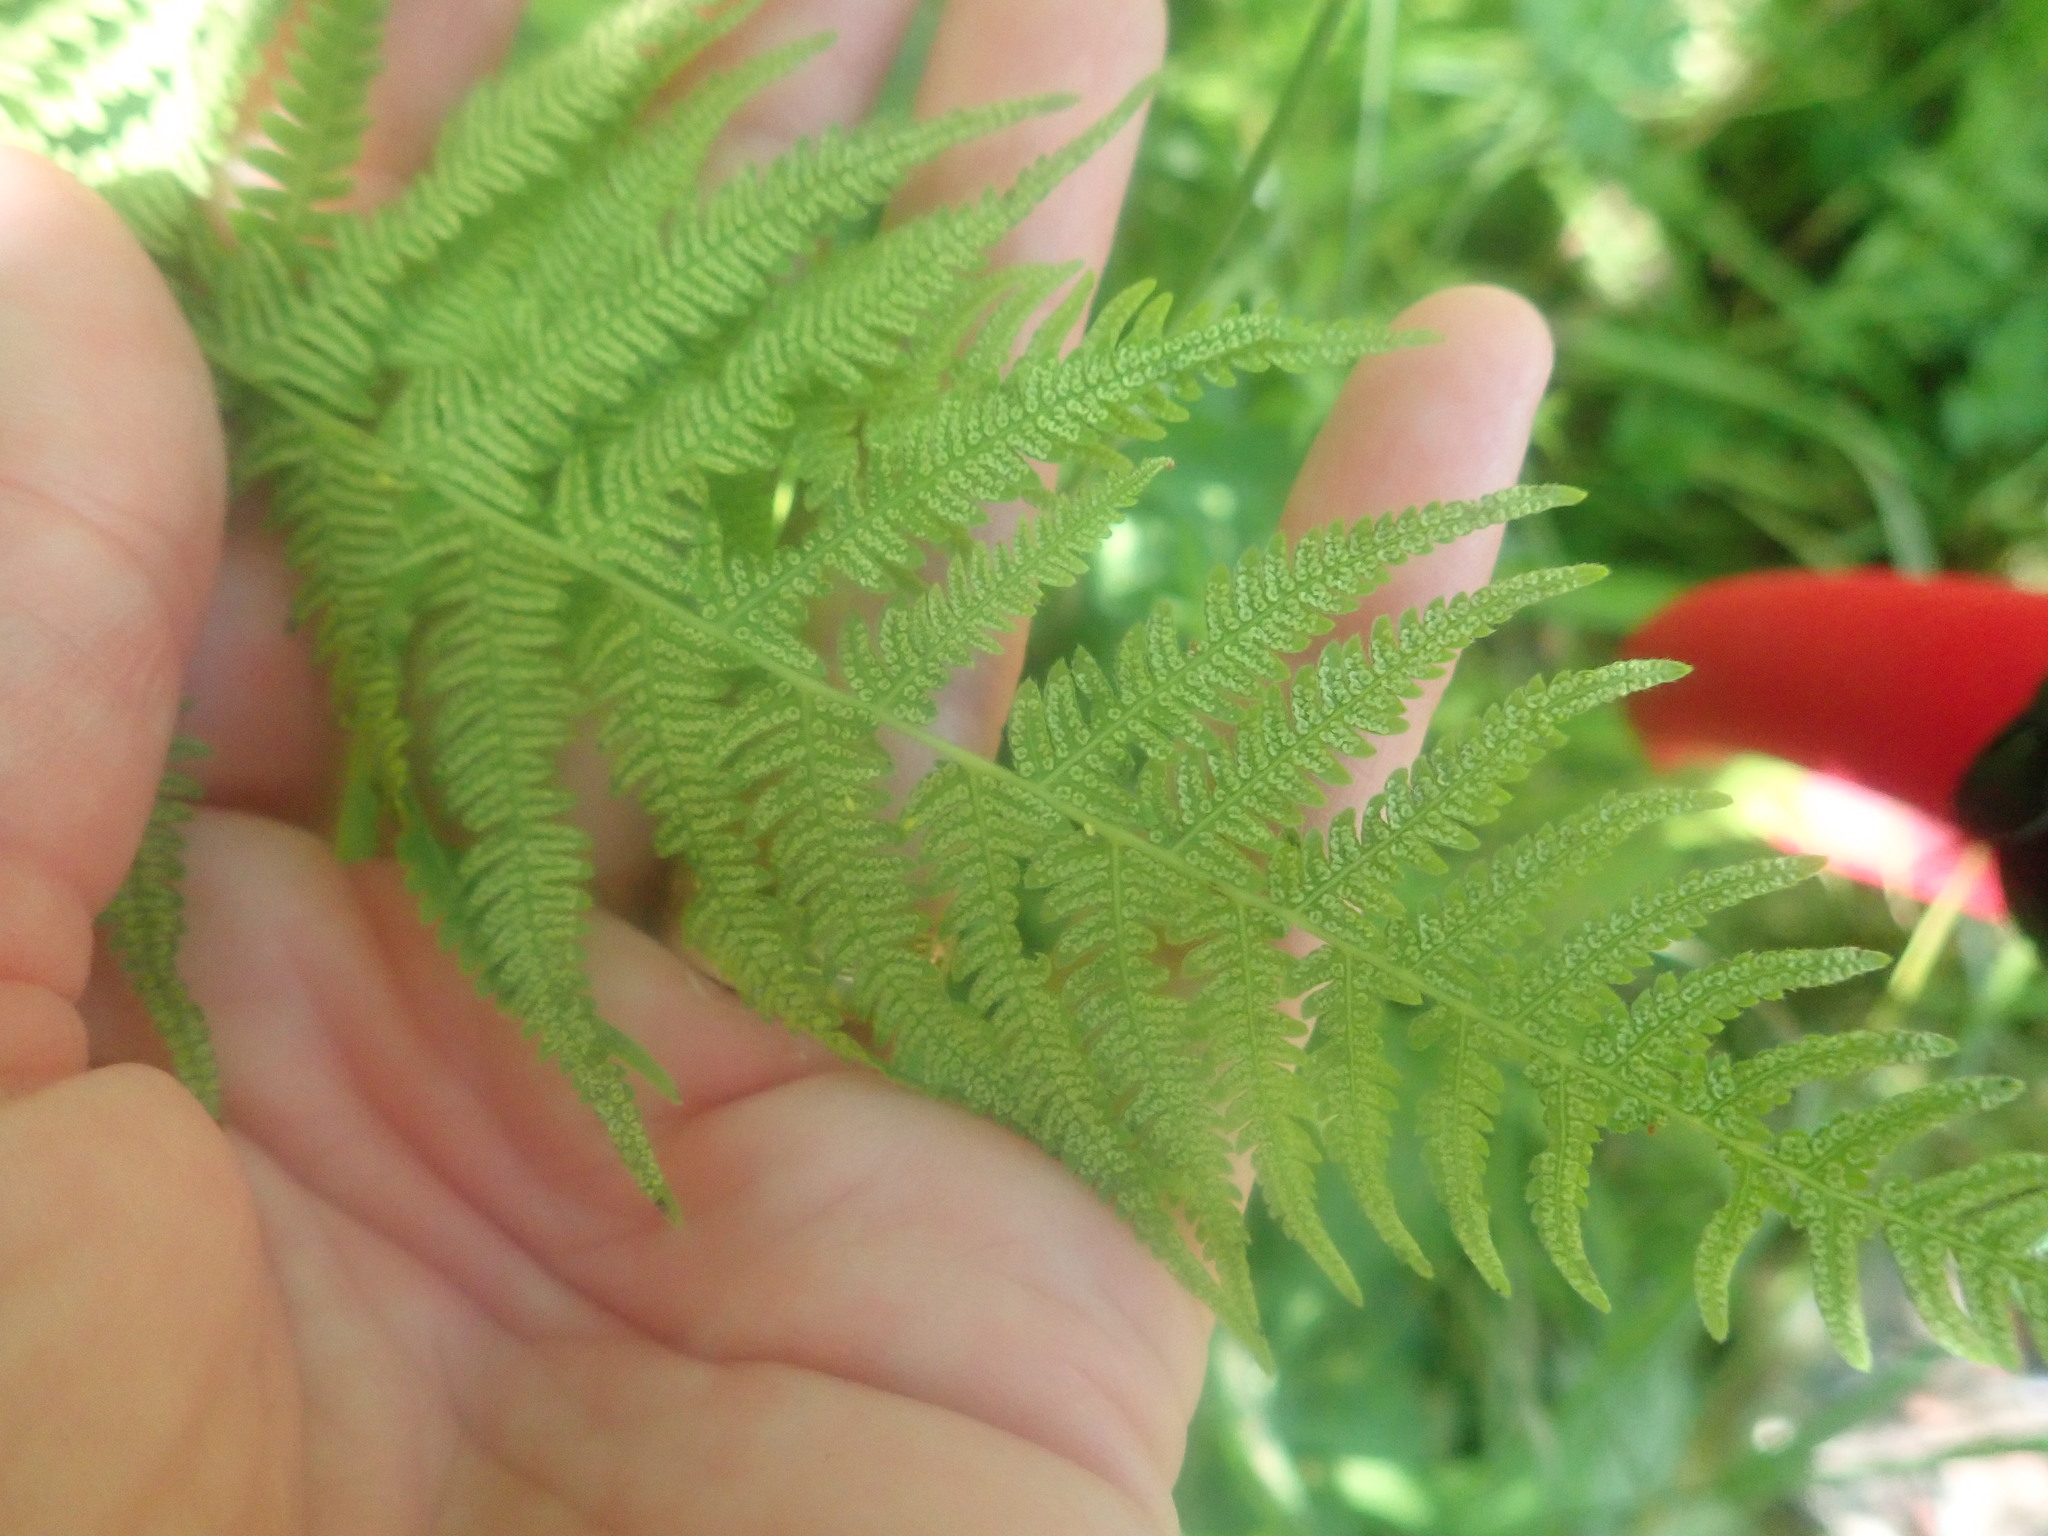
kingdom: Plantae
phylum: Tracheophyta
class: Polypodiopsida
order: Polypodiales
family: Thelypteridaceae
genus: Amauropelta
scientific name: Amauropelta noveboracensis
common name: New york fern
